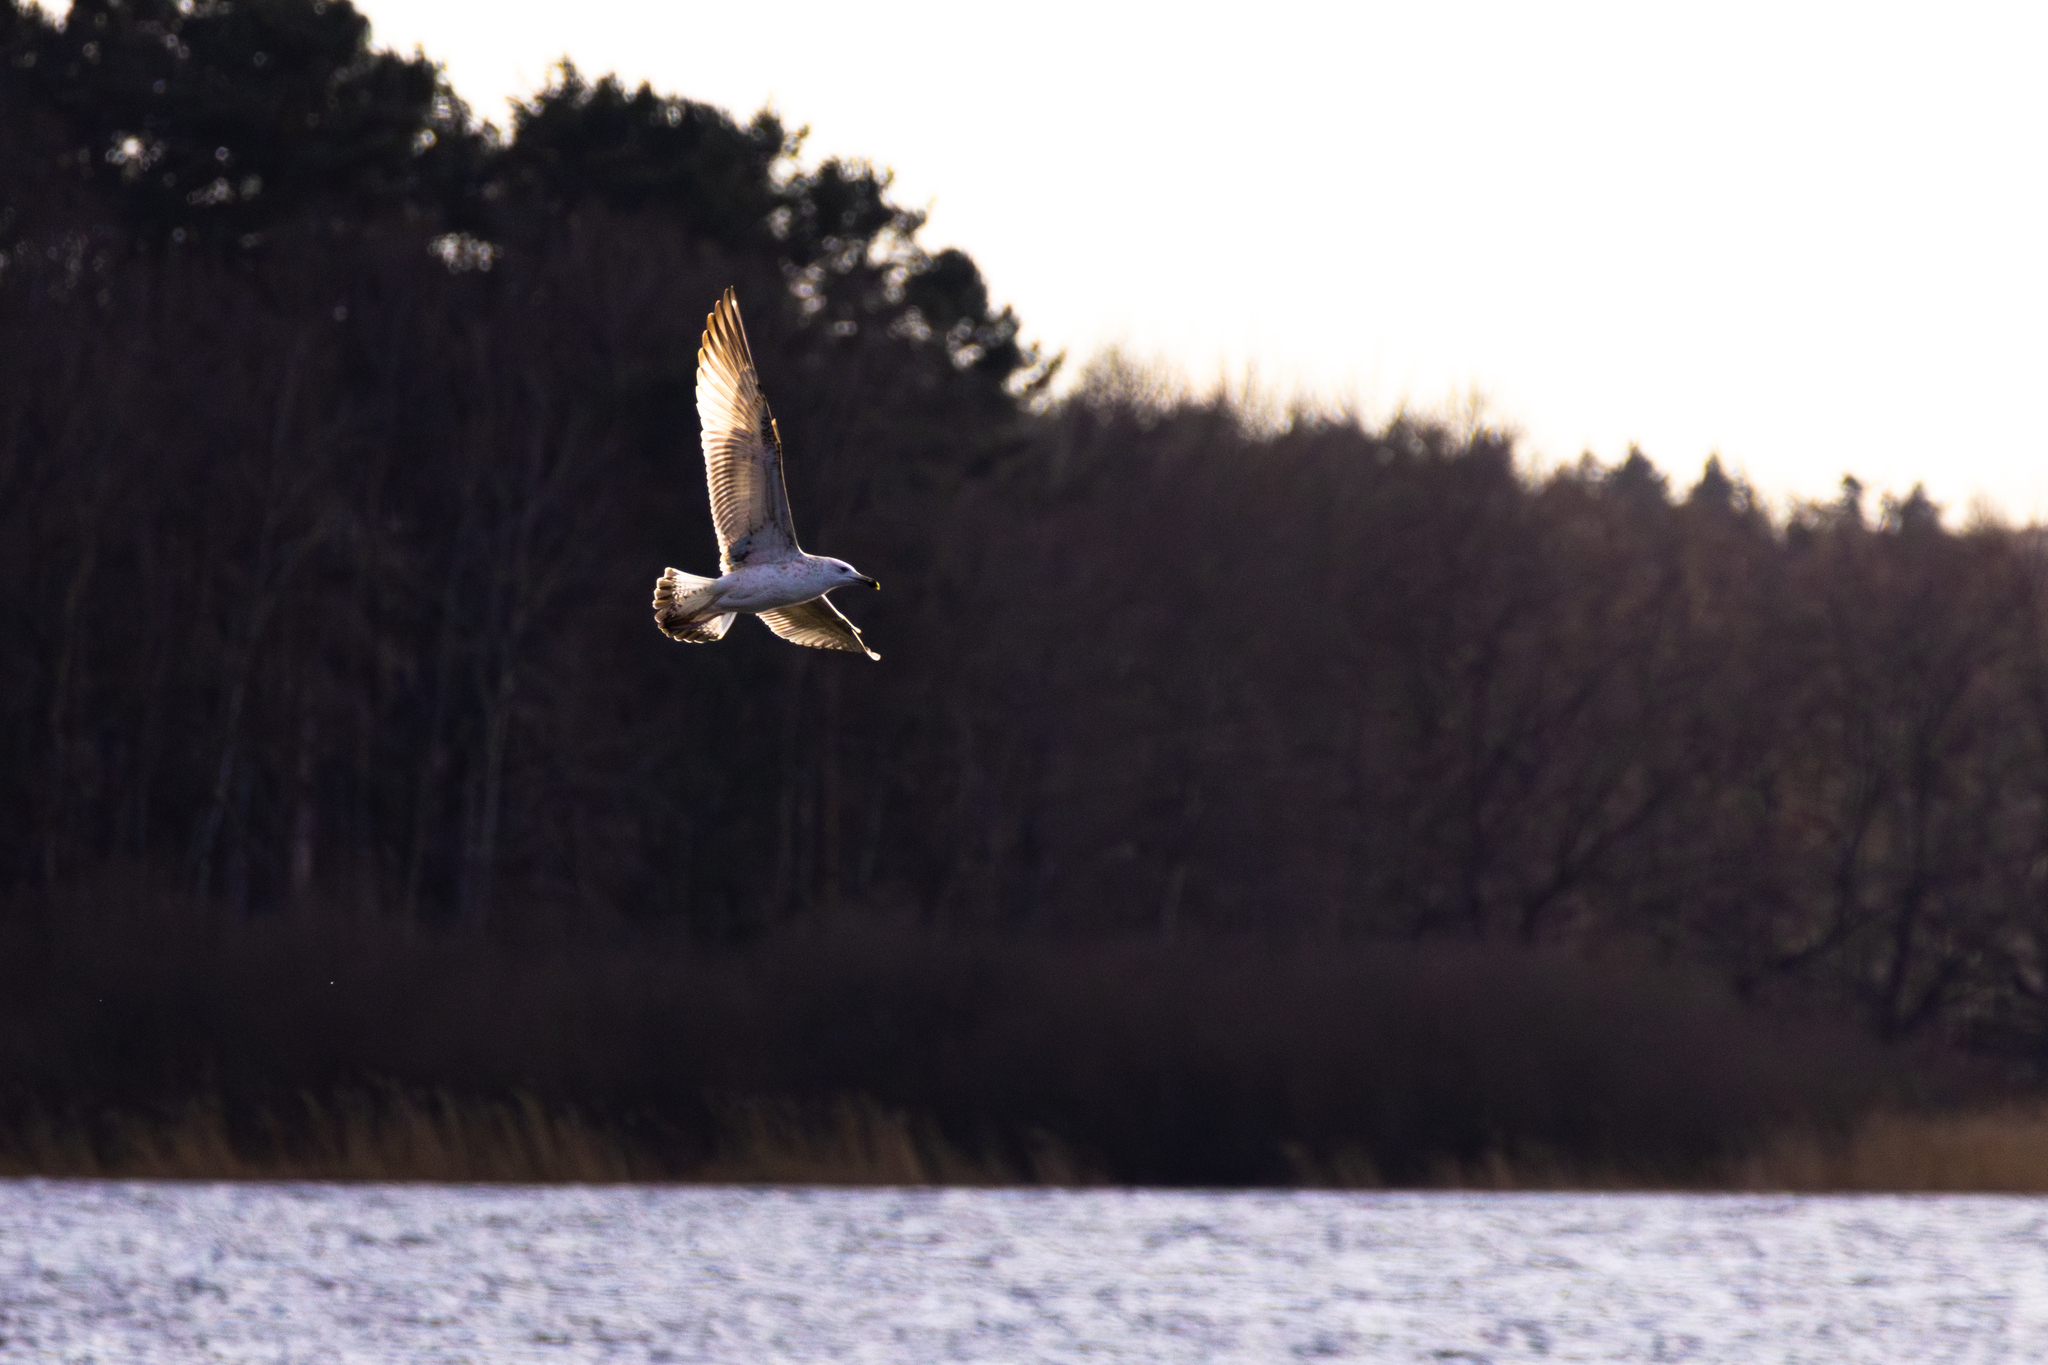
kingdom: Animalia
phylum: Chordata
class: Aves
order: Charadriiformes
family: Laridae
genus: Larus
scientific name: Larus cachinnans
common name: Caspian gull
